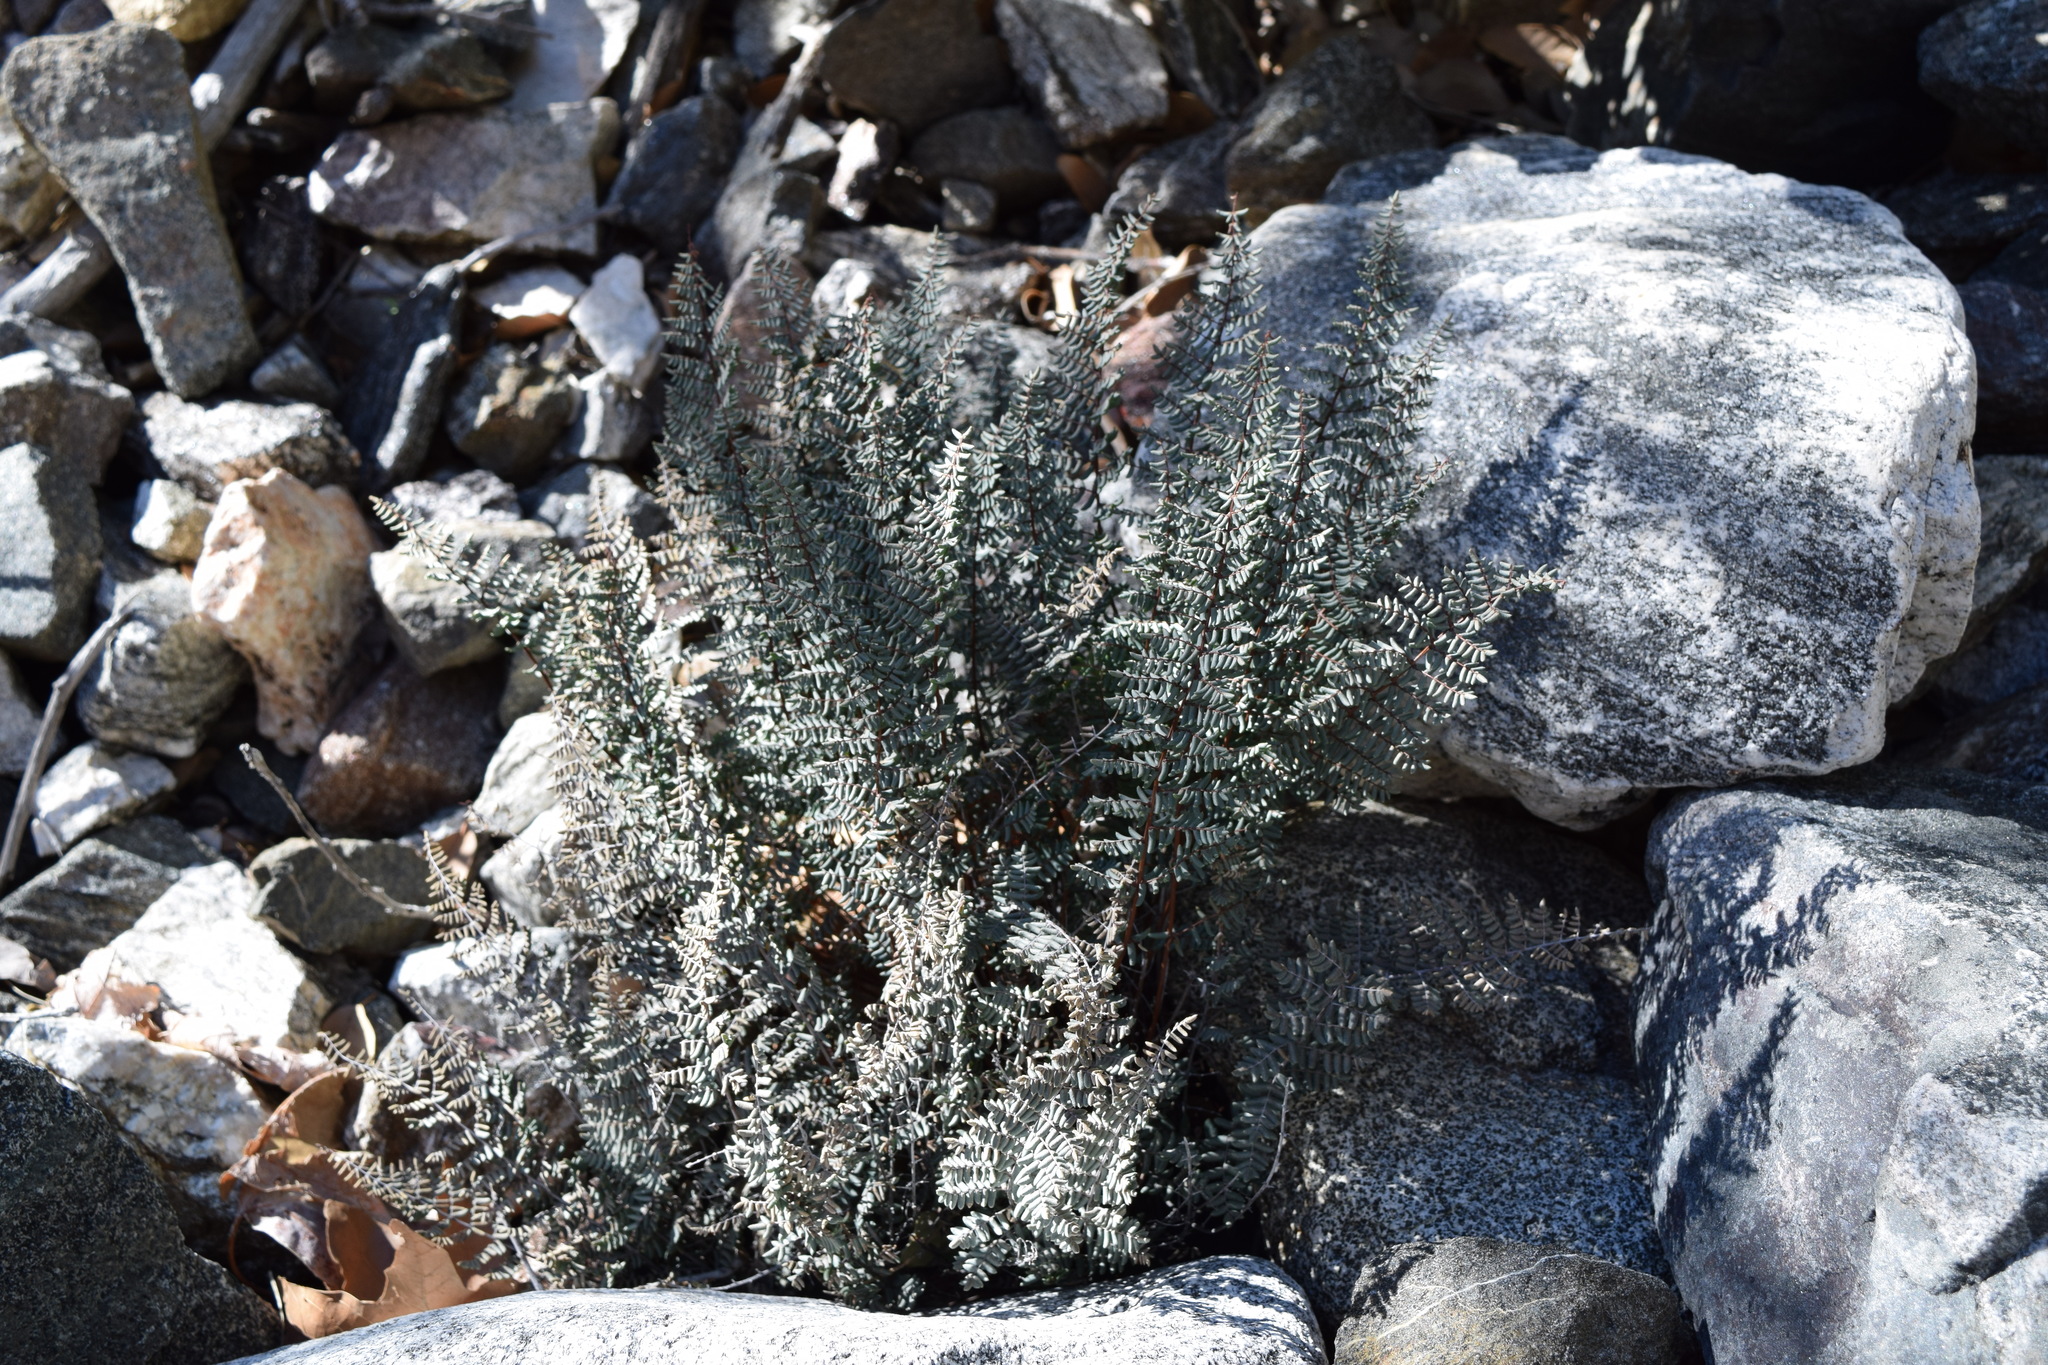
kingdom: Plantae
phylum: Tracheophyta
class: Polypodiopsida
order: Polypodiales
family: Pteridaceae
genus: Pellaea
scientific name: Pellaea mucronata
